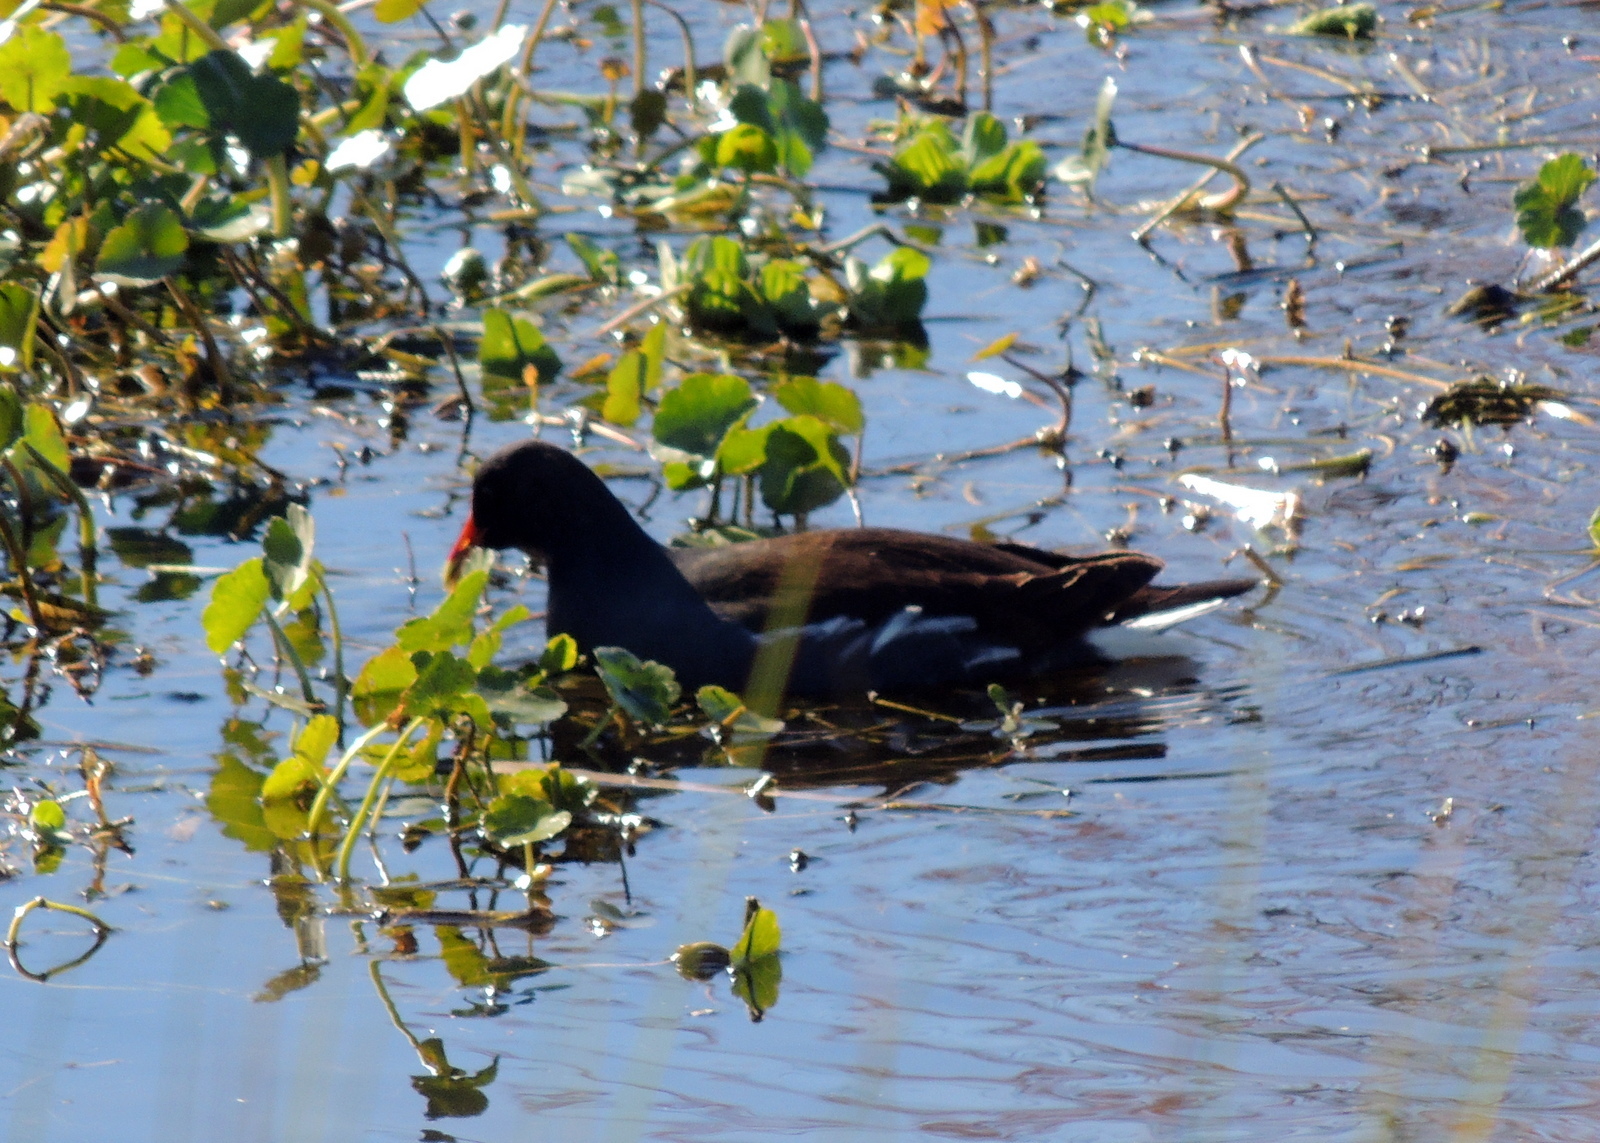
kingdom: Animalia
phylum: Chordata
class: Aves
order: Gruiformes
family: Rallidae
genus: Gallinula
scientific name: Gallinula chloropus
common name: Common moorhen
